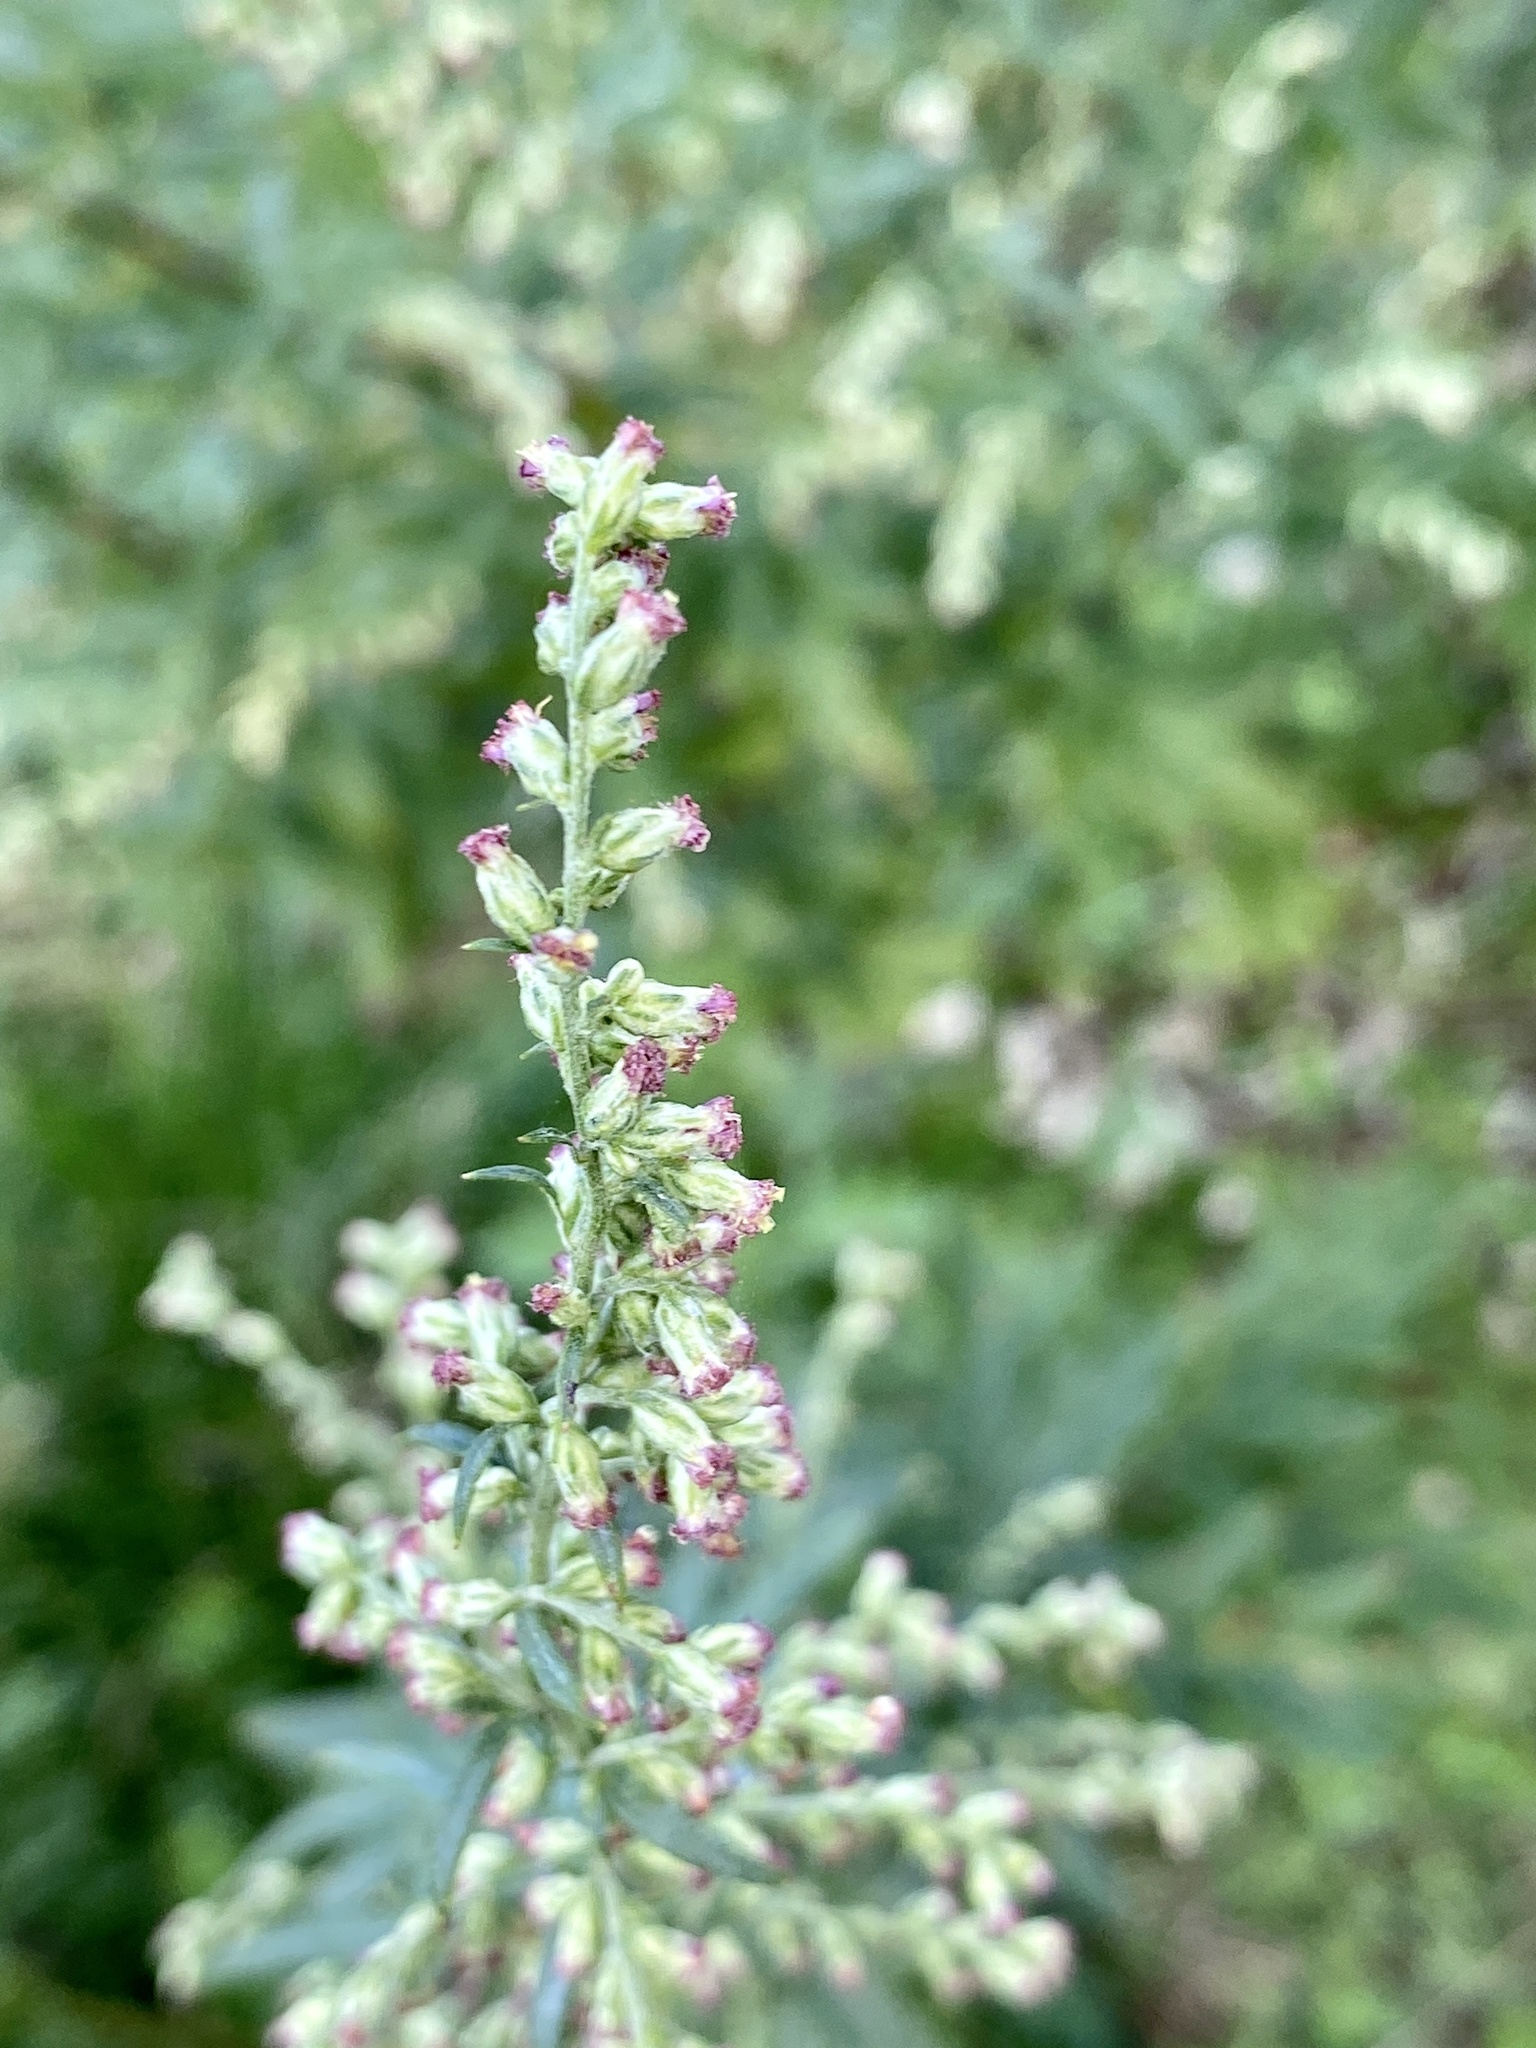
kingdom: Plantae
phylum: Tracheophyta
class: Magnoliopsida
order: Asterales
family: Asteraceae
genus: Artemisia
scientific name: Artemisia vulgaris
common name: Mugwort
